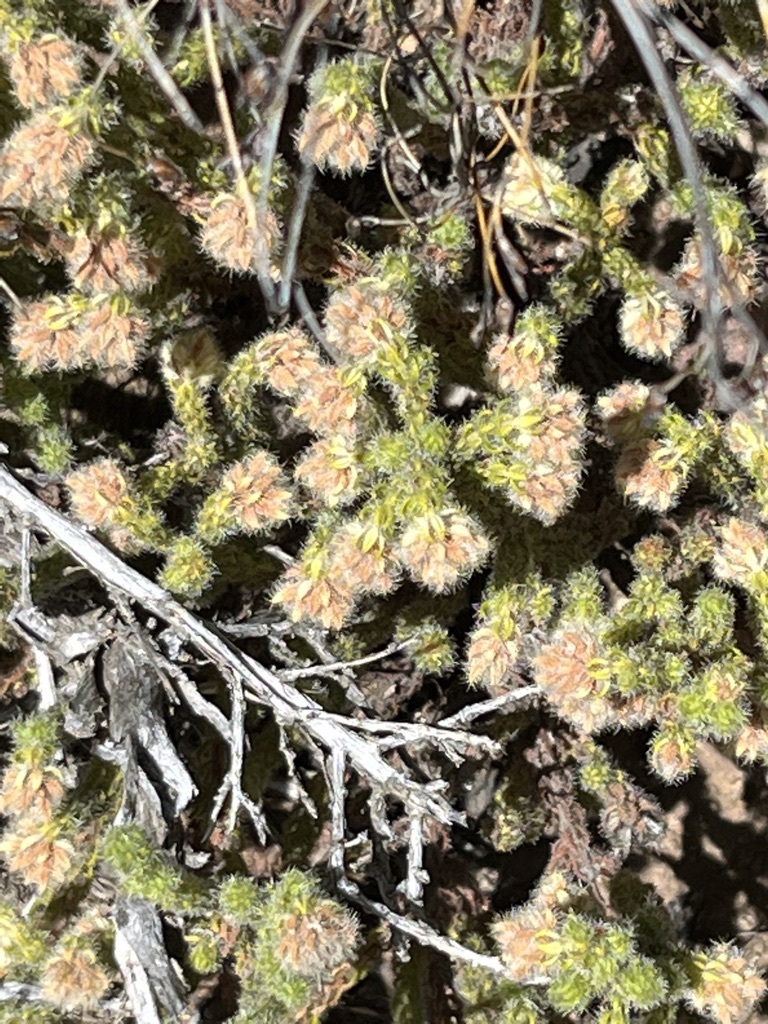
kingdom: Plantae
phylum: Tracheophyta
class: Magnoliopsida
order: Ericales
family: Ericaceae
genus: Erica
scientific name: Erica senilis
